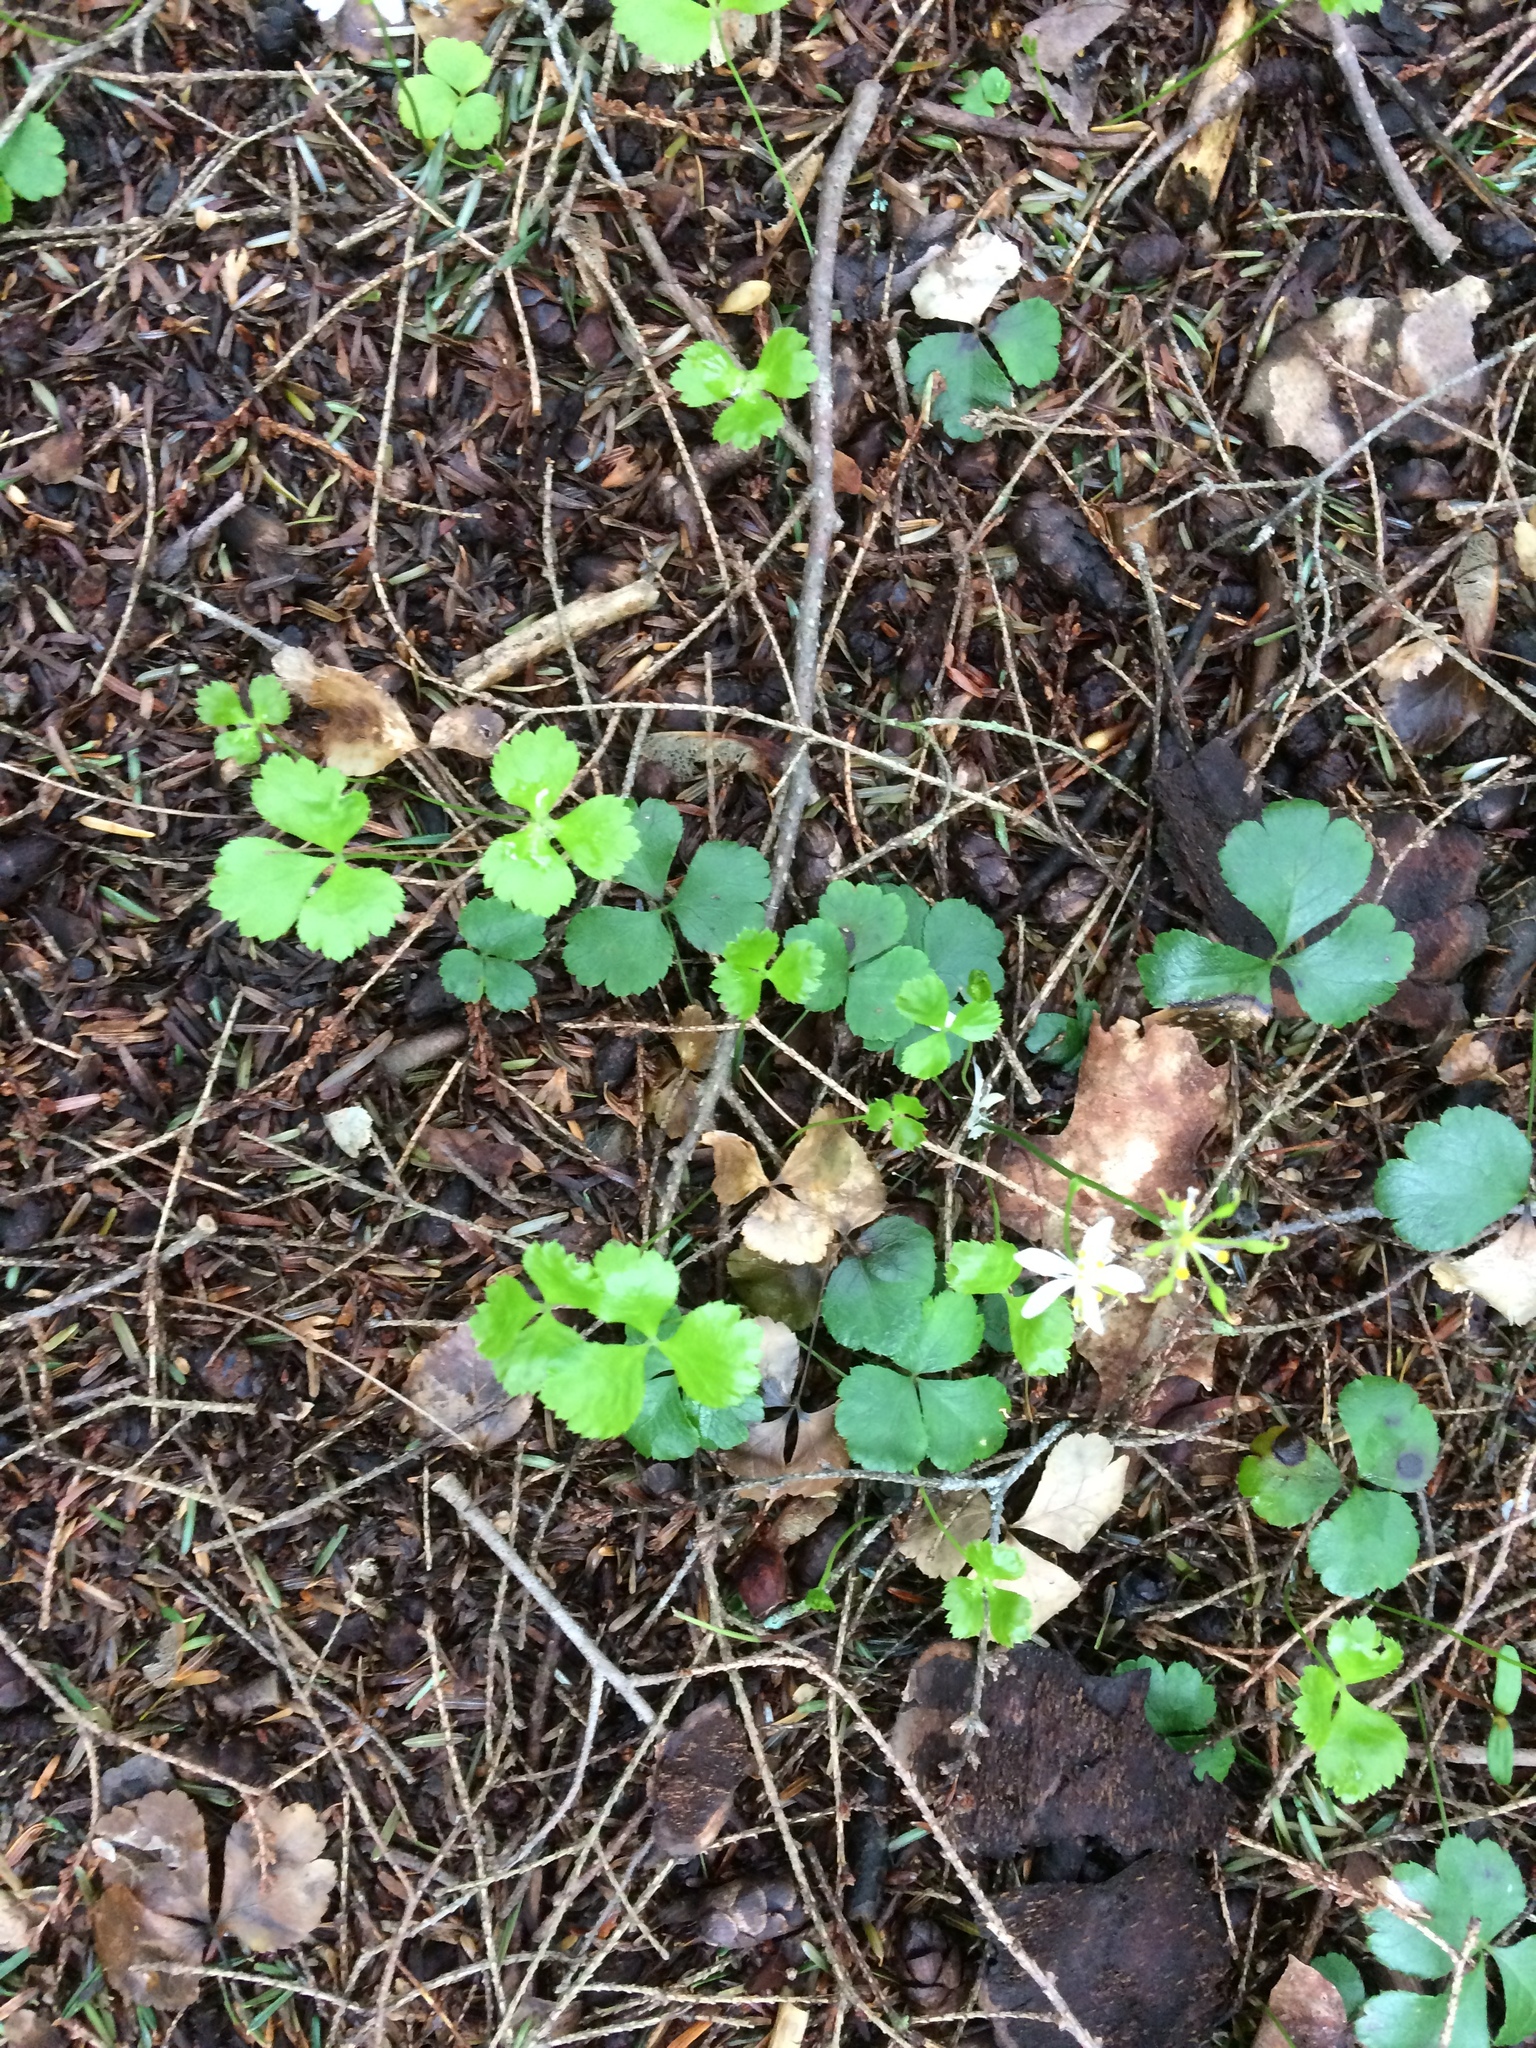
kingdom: Plantae
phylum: Tracheophyta
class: Magnoliopsida
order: Ranunculales
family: Ranunculaceae
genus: Coptis
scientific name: Coptis trifolia
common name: Canker-root
